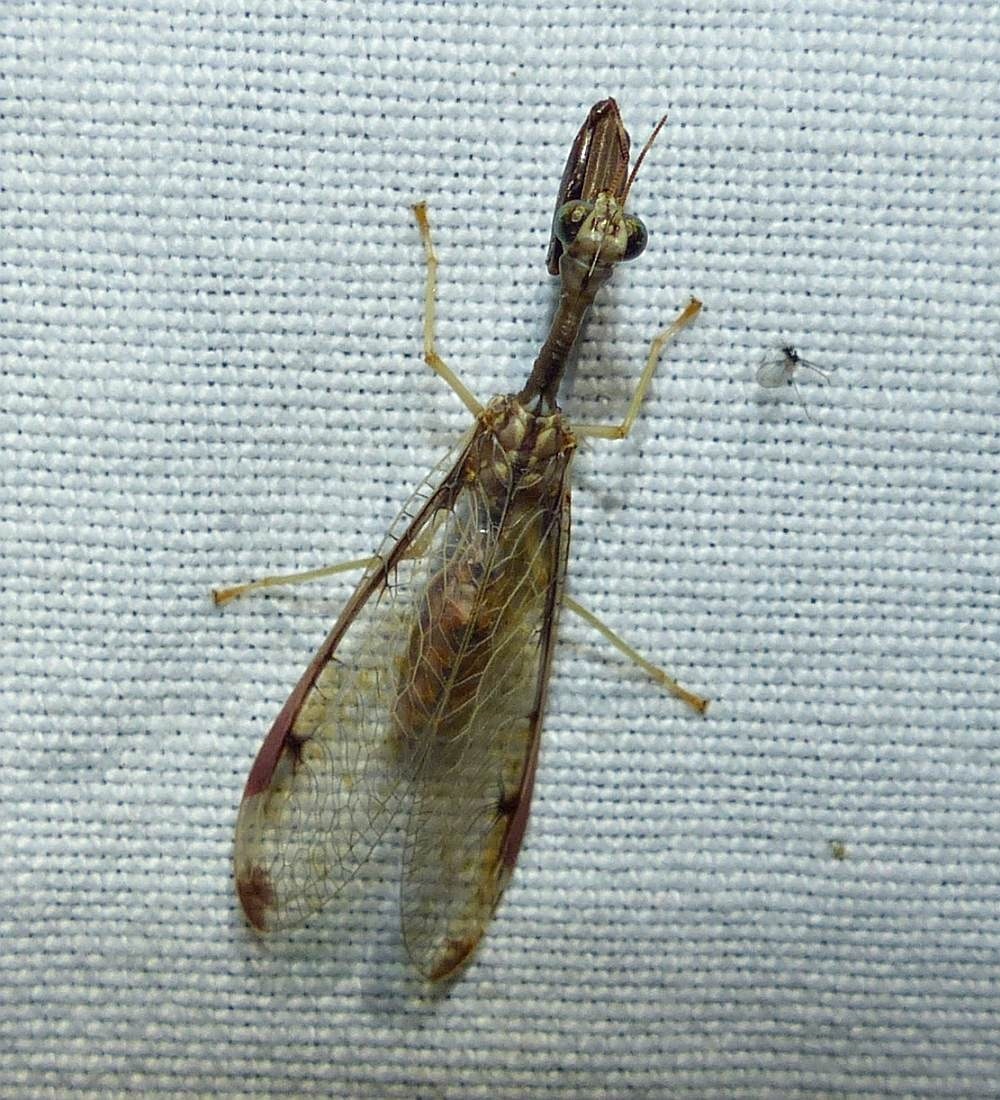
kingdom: Animalia
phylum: Arthropoda
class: Insecta
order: Neuroptera
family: Mantispidae
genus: Dicromantispa
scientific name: Dicromantispa interrupta
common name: Four-spotted mantidfly
